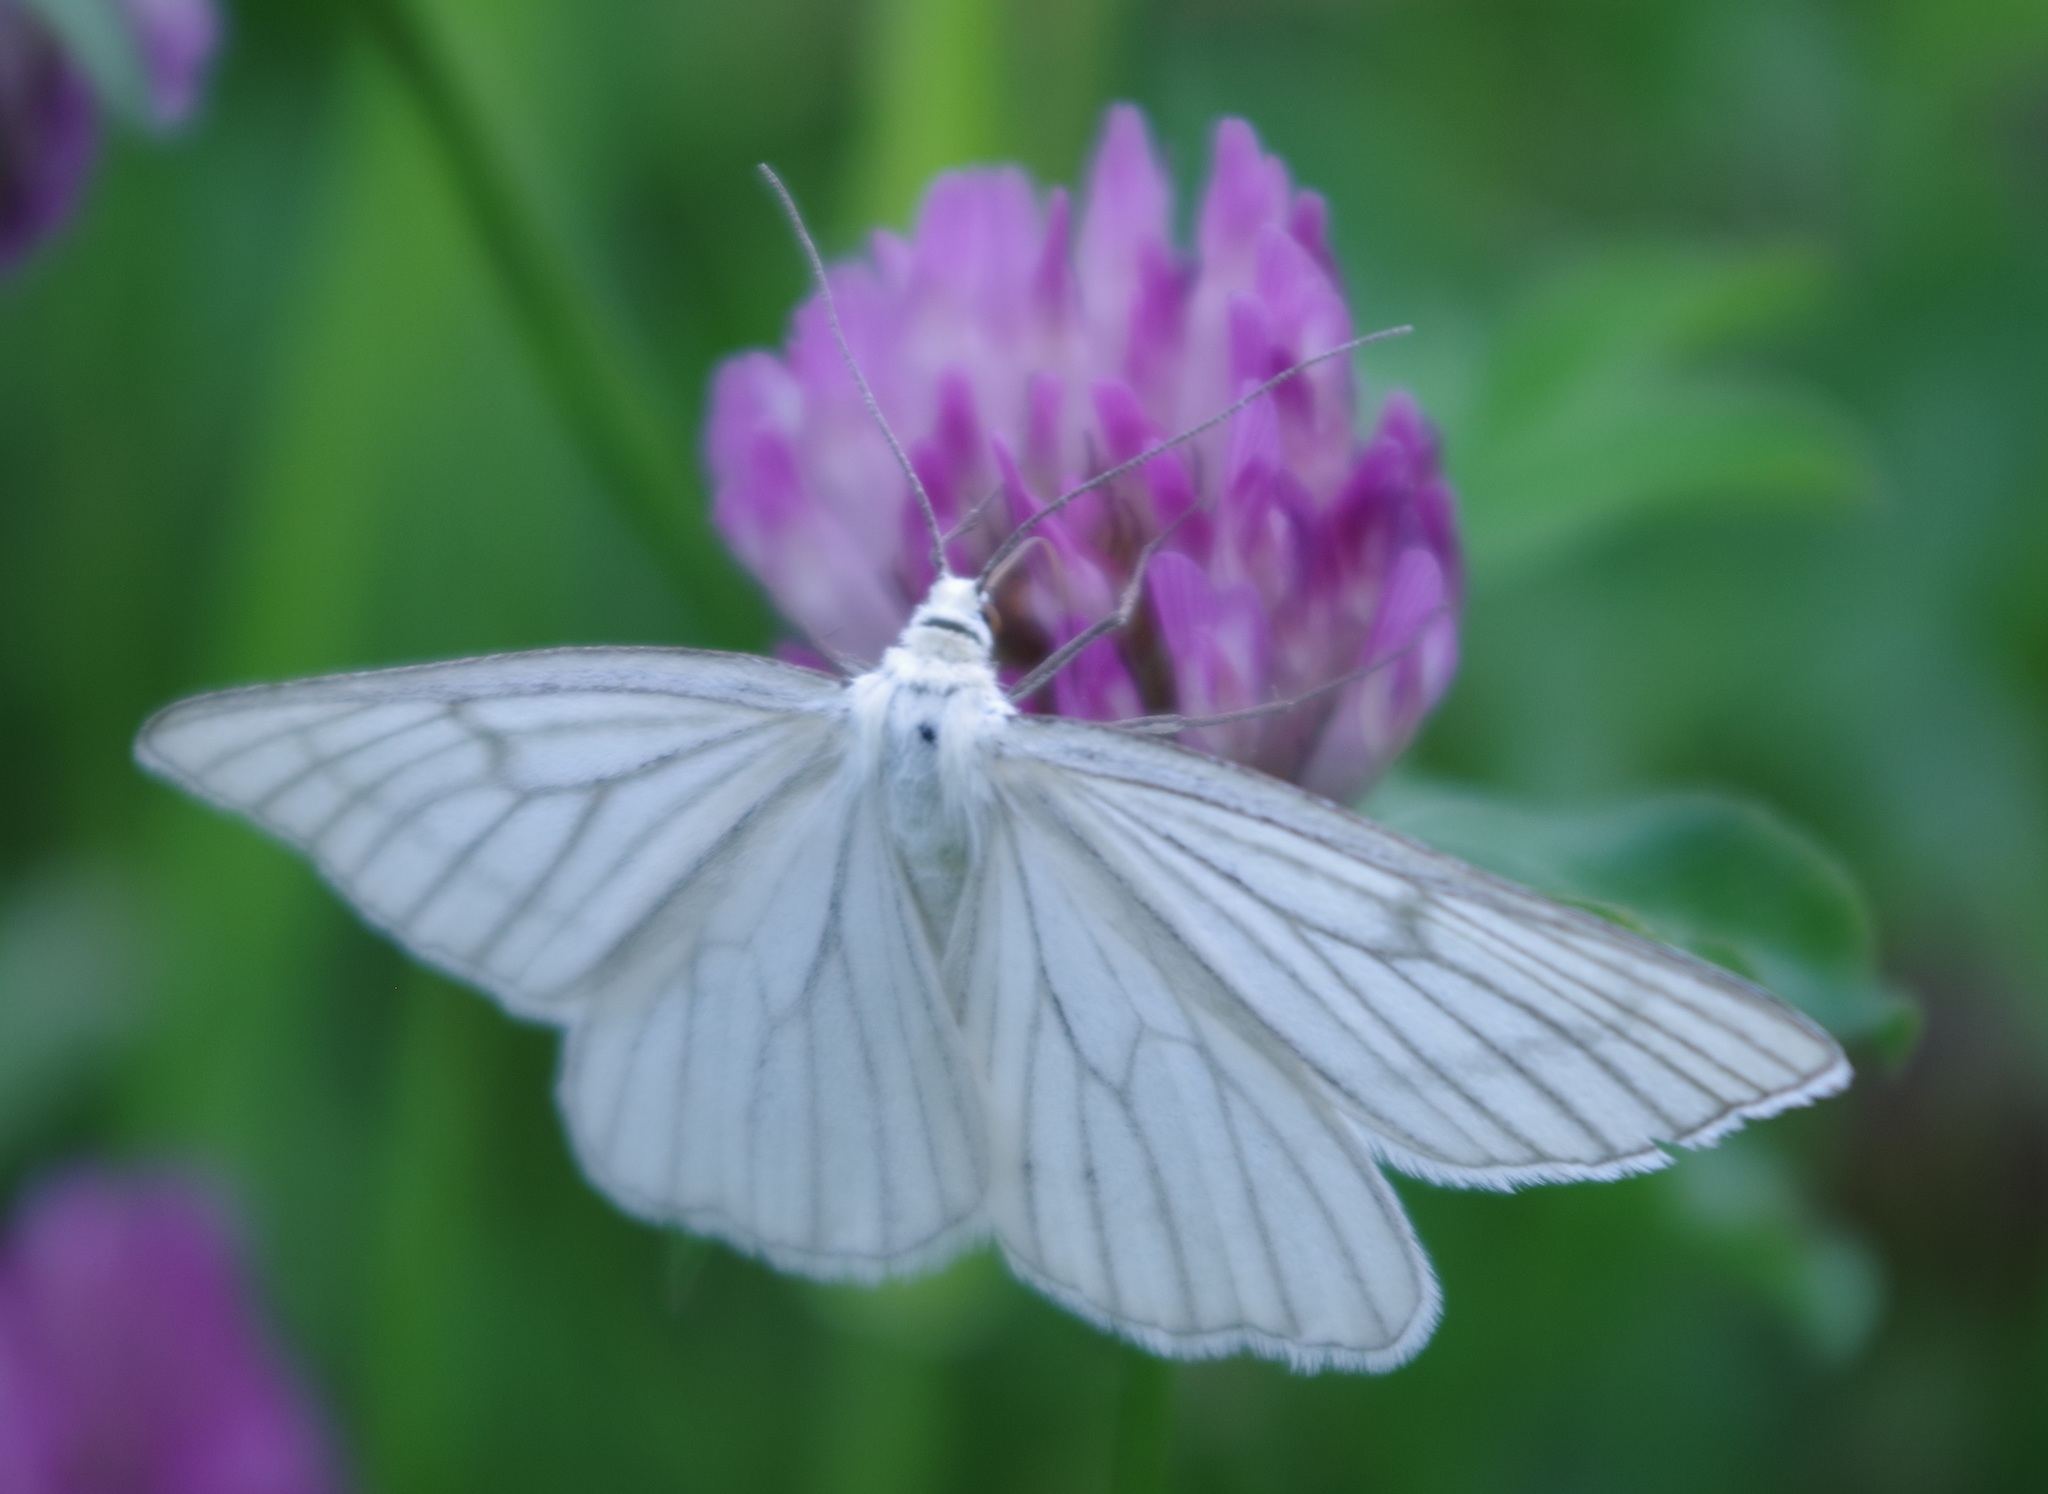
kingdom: Animalia
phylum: Arthropoda
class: Insecta
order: Lepidoptera
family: Geometridae
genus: Siona
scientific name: Siona lineata
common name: Black-veined moth
